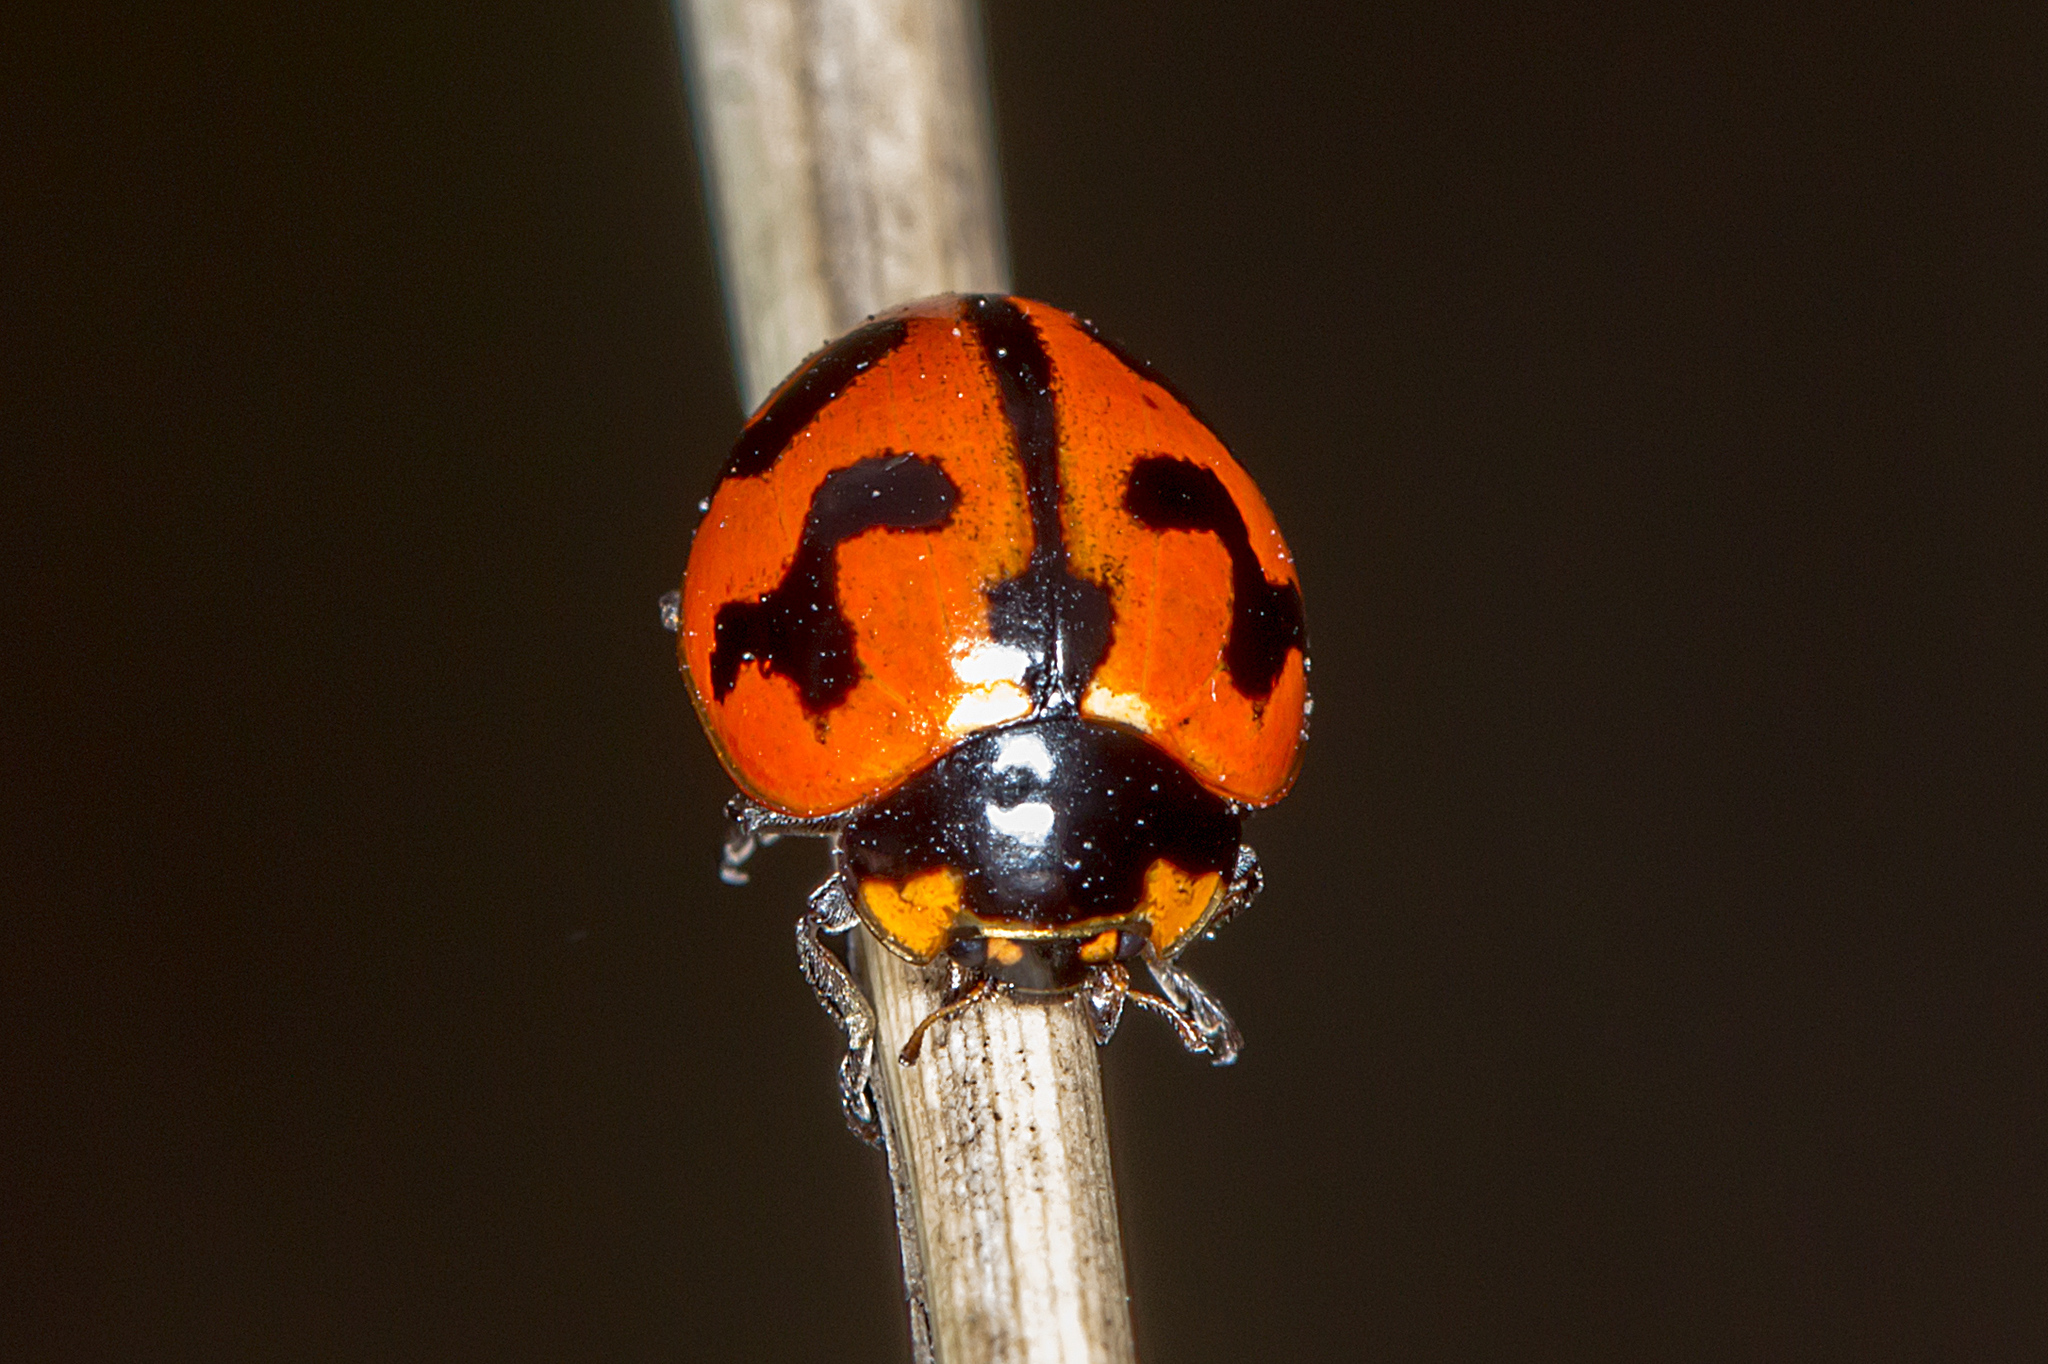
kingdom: Animalia
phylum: Arthropoda
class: Insecta
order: Coleoptera
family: Coccinellidae
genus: Coccinella
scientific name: Coccinella transversalis
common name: Transverse lady beetle
